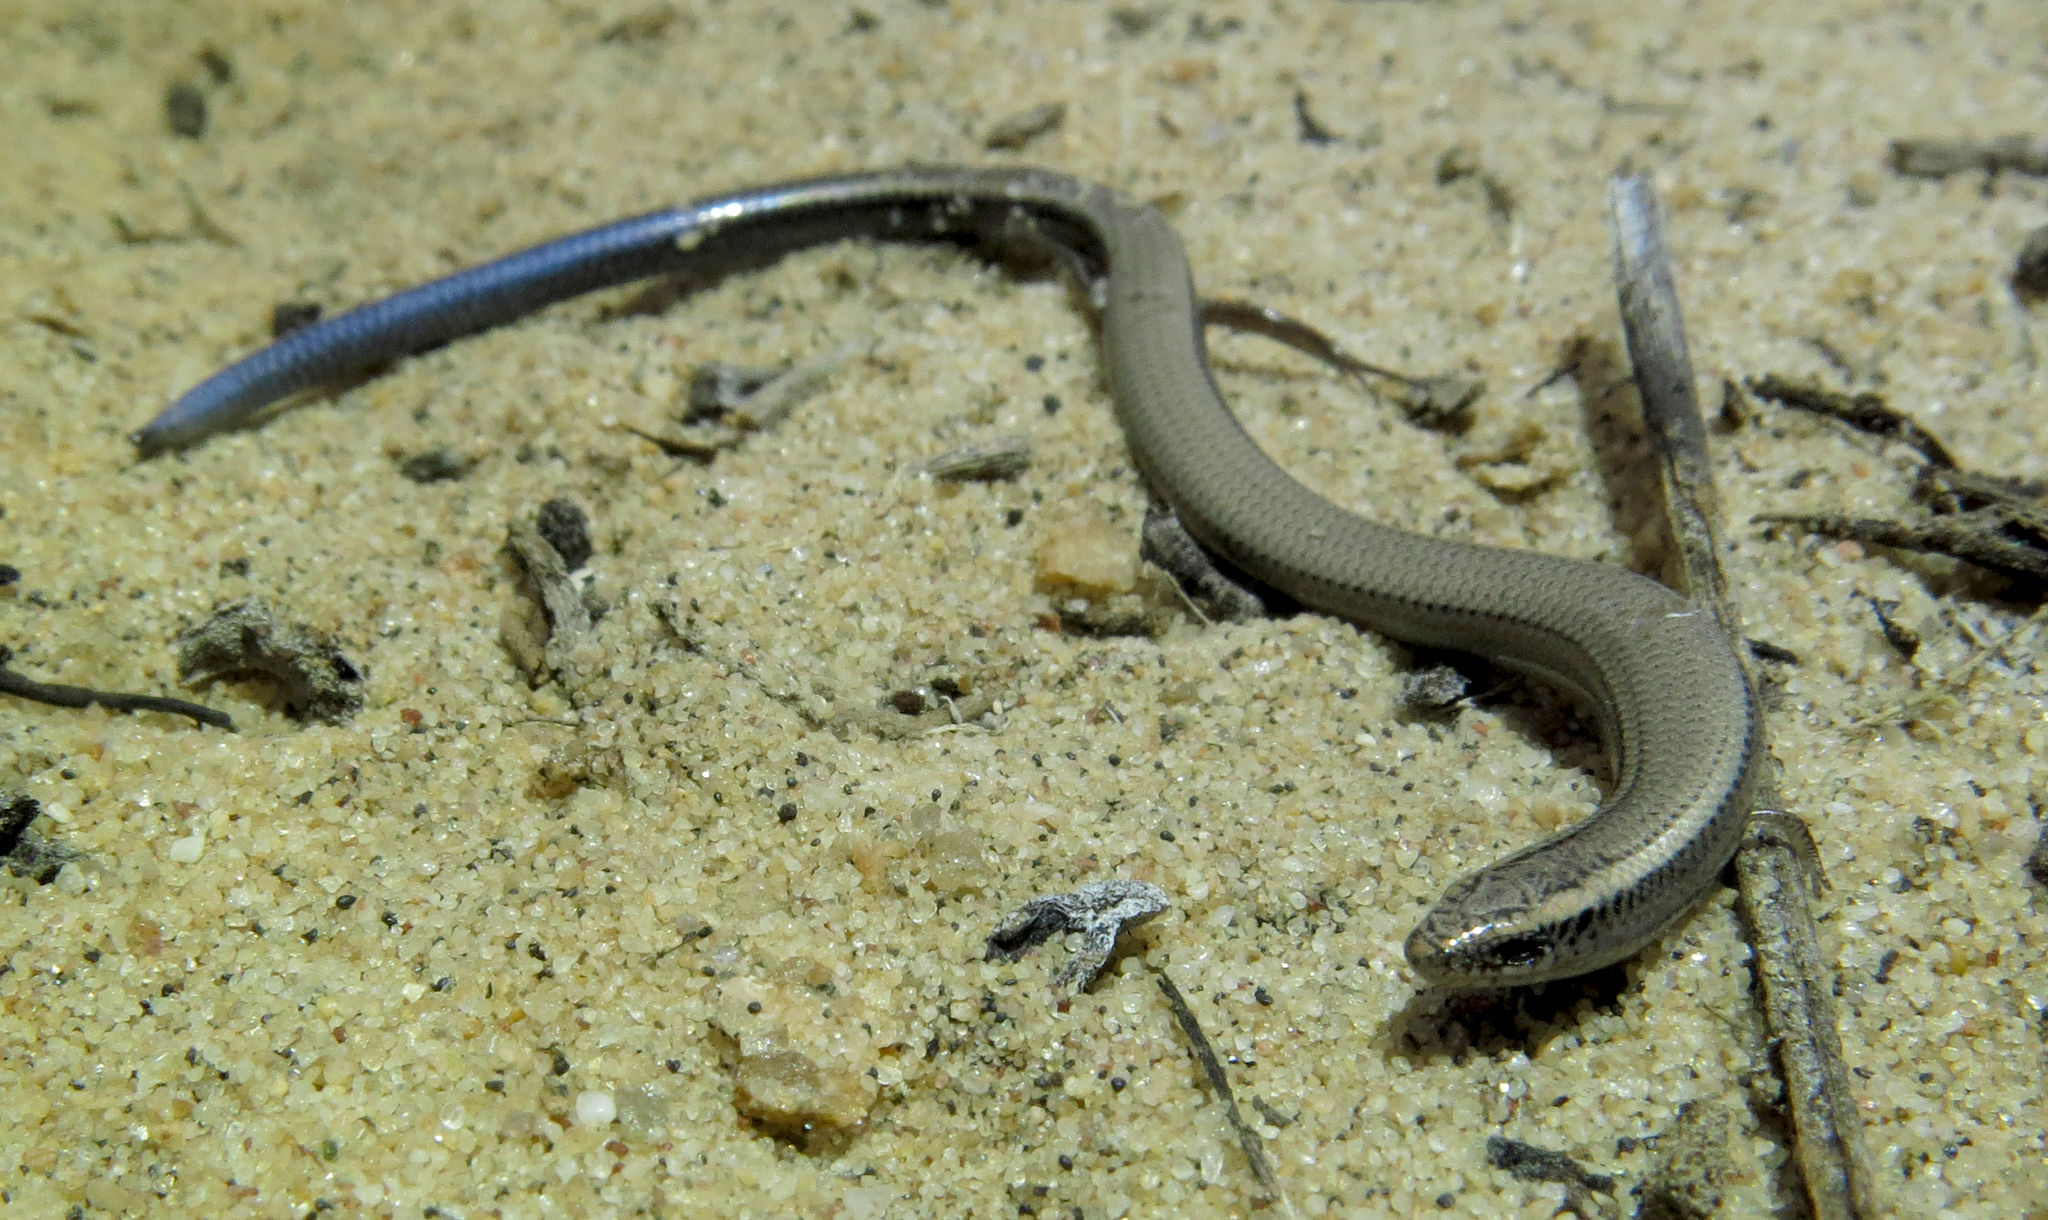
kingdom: Animalia
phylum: Chordata
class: Squamata
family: Scincidae
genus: Scelotes
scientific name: Scelotes caffer
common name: Cape dwarf burrowing skink
